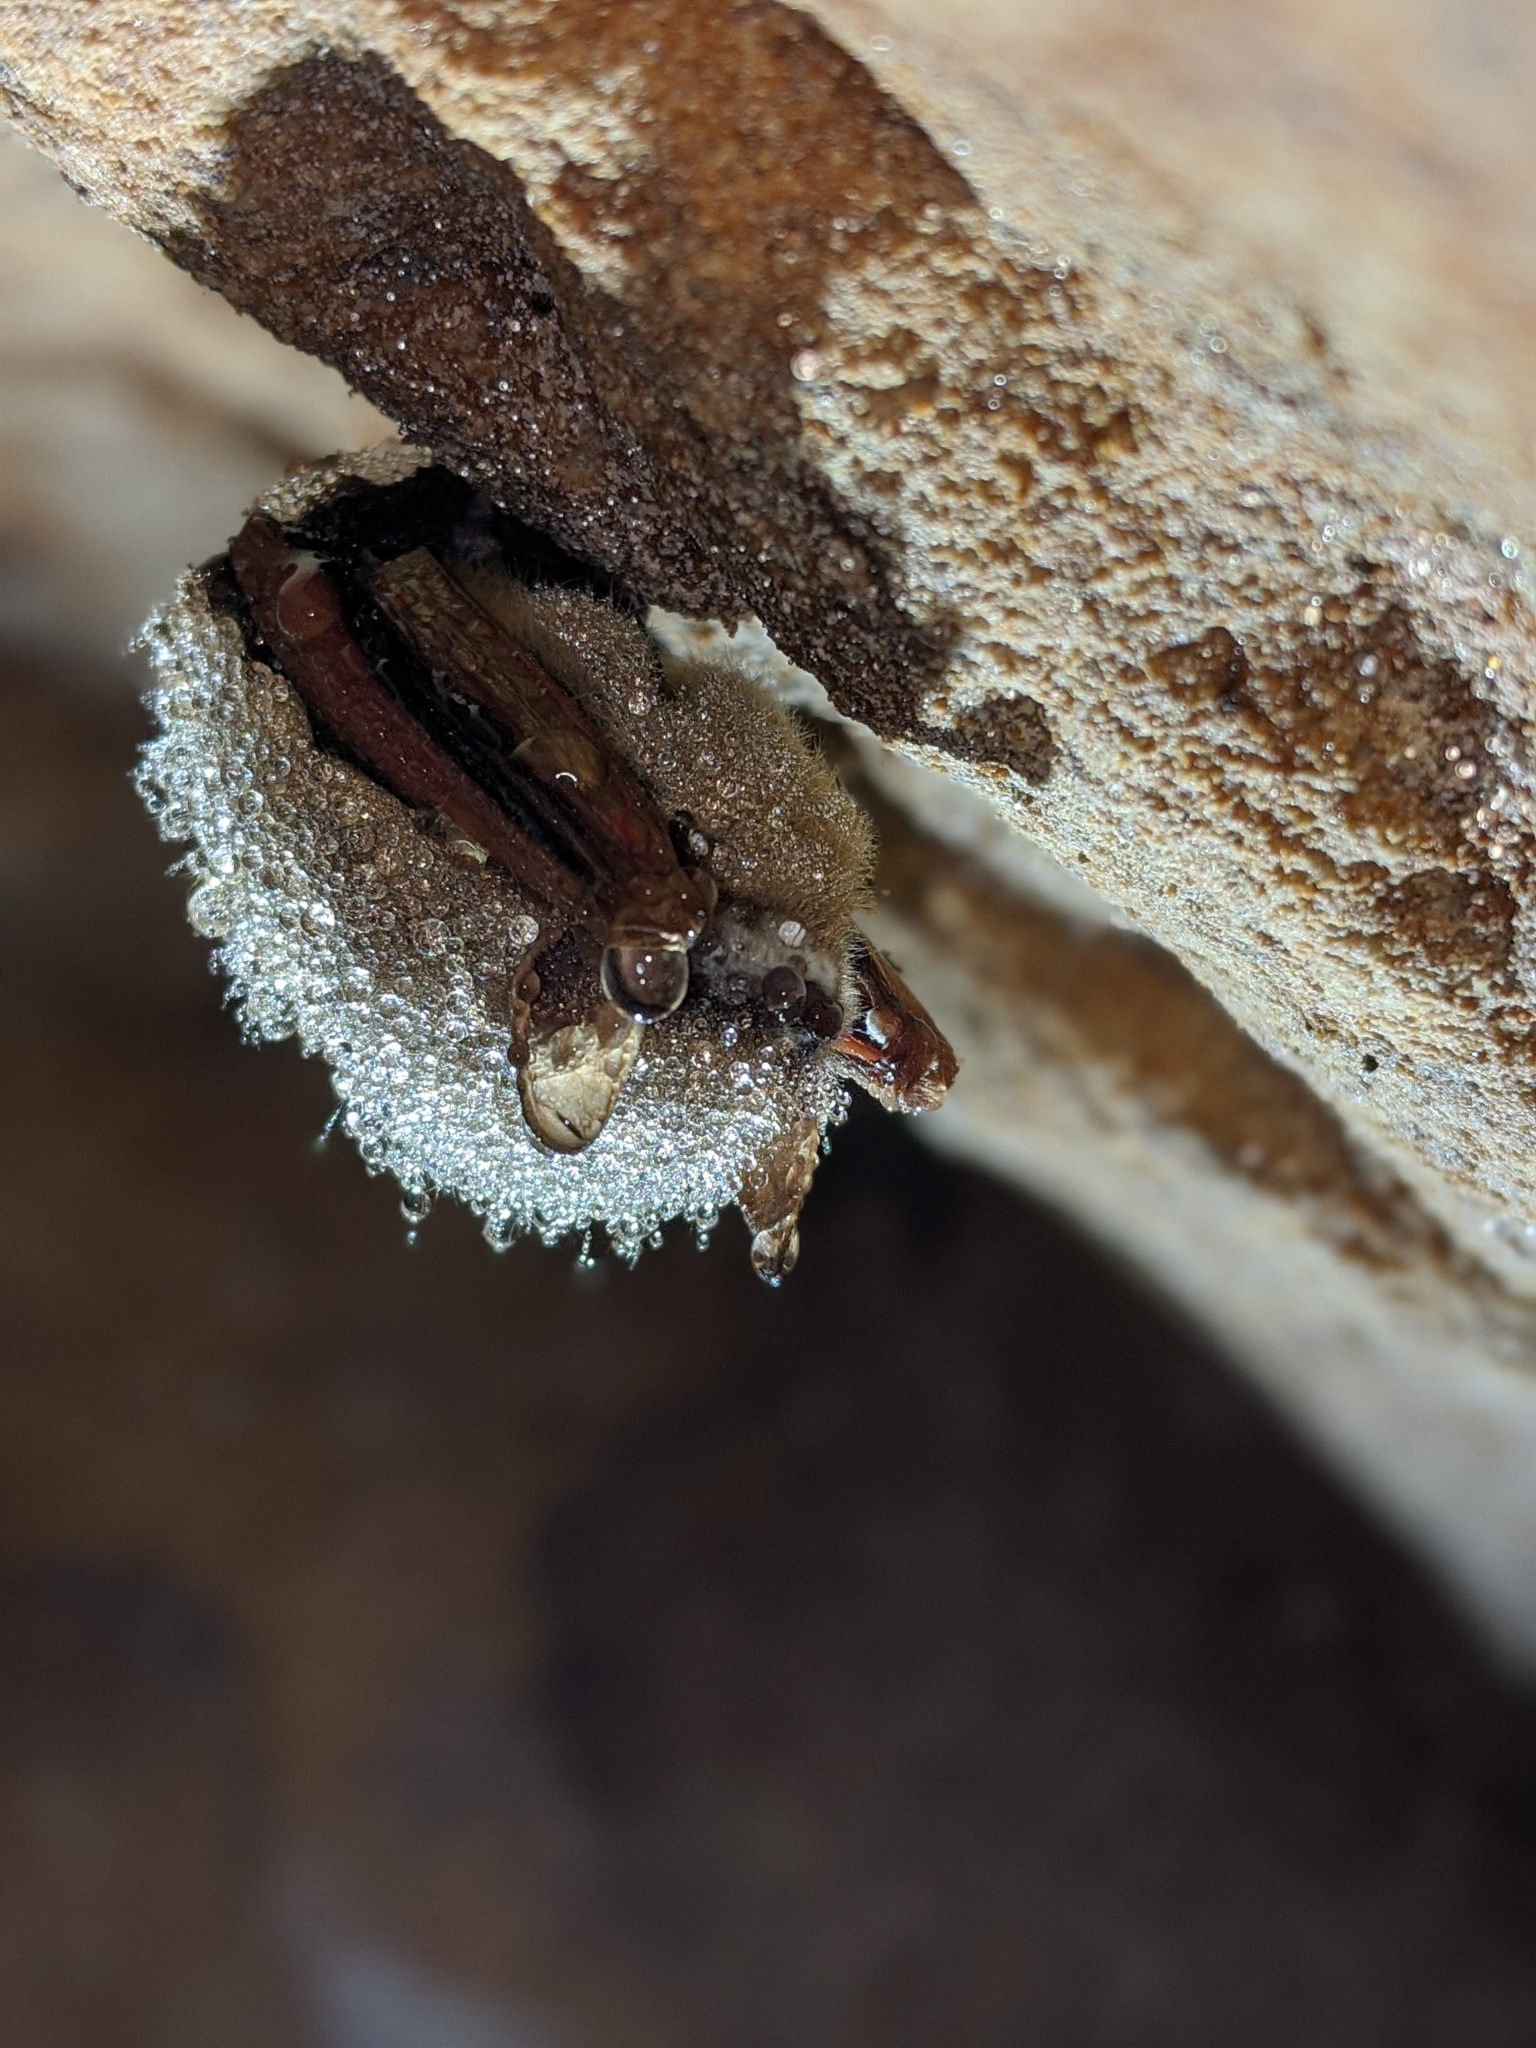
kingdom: Animalia
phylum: Chordata
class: Mammalia
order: Chiroptera
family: Vespertilionidae
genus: Perimyotis
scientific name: Perimyotis subflavus
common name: Eastern pipistrelle
